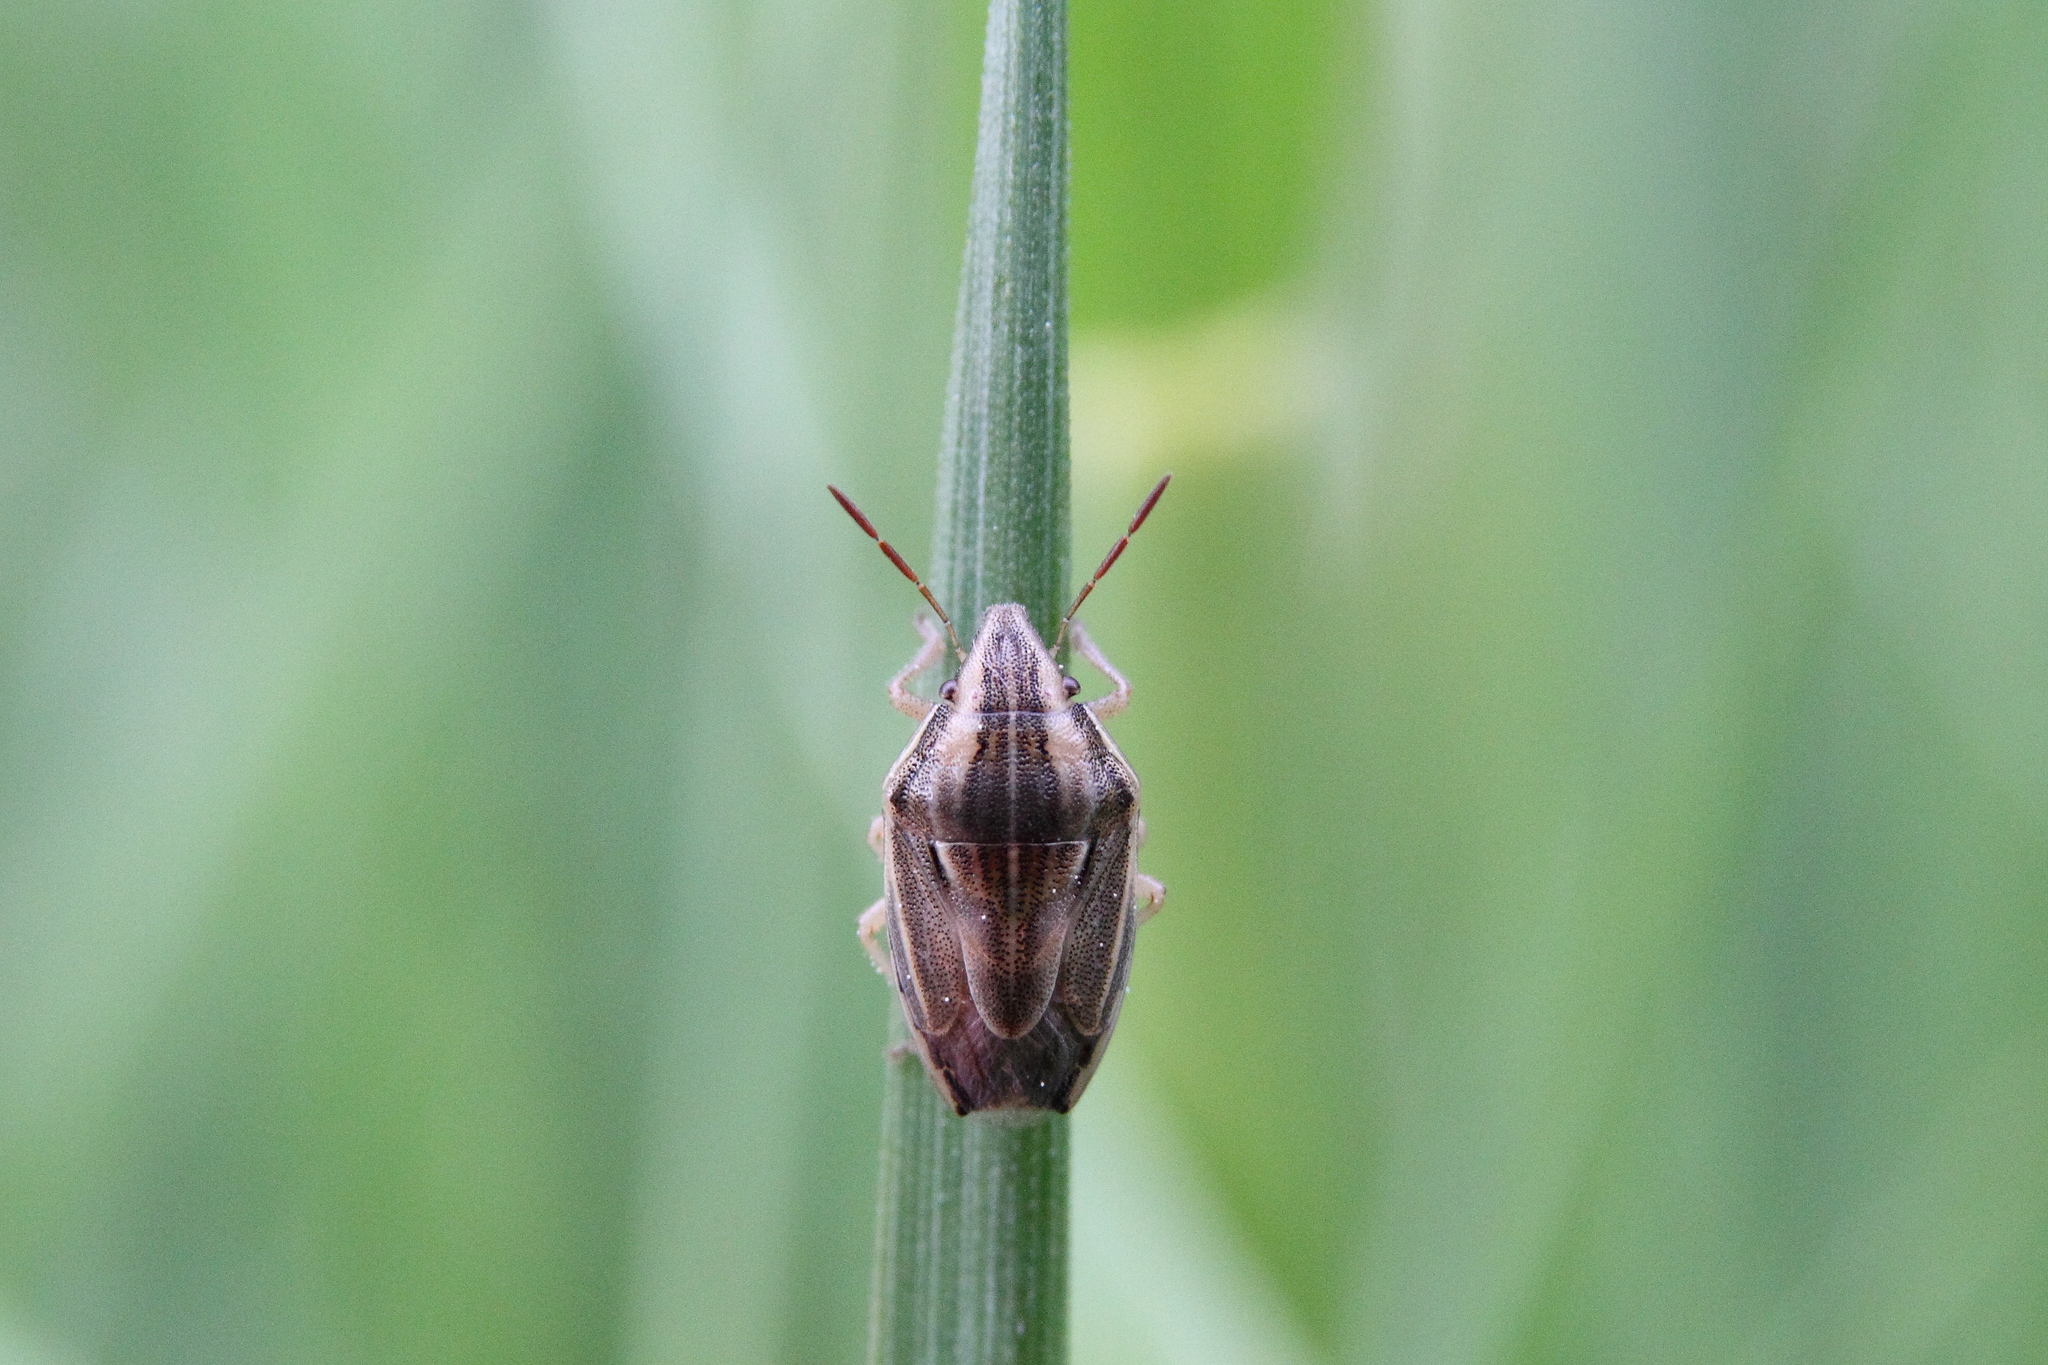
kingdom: Animalia
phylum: Arthropoda
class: Insecta
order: Hemiptera
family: Pentatomidae
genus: Aelia
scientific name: Aelia acuminata
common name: Bishop's mitre
